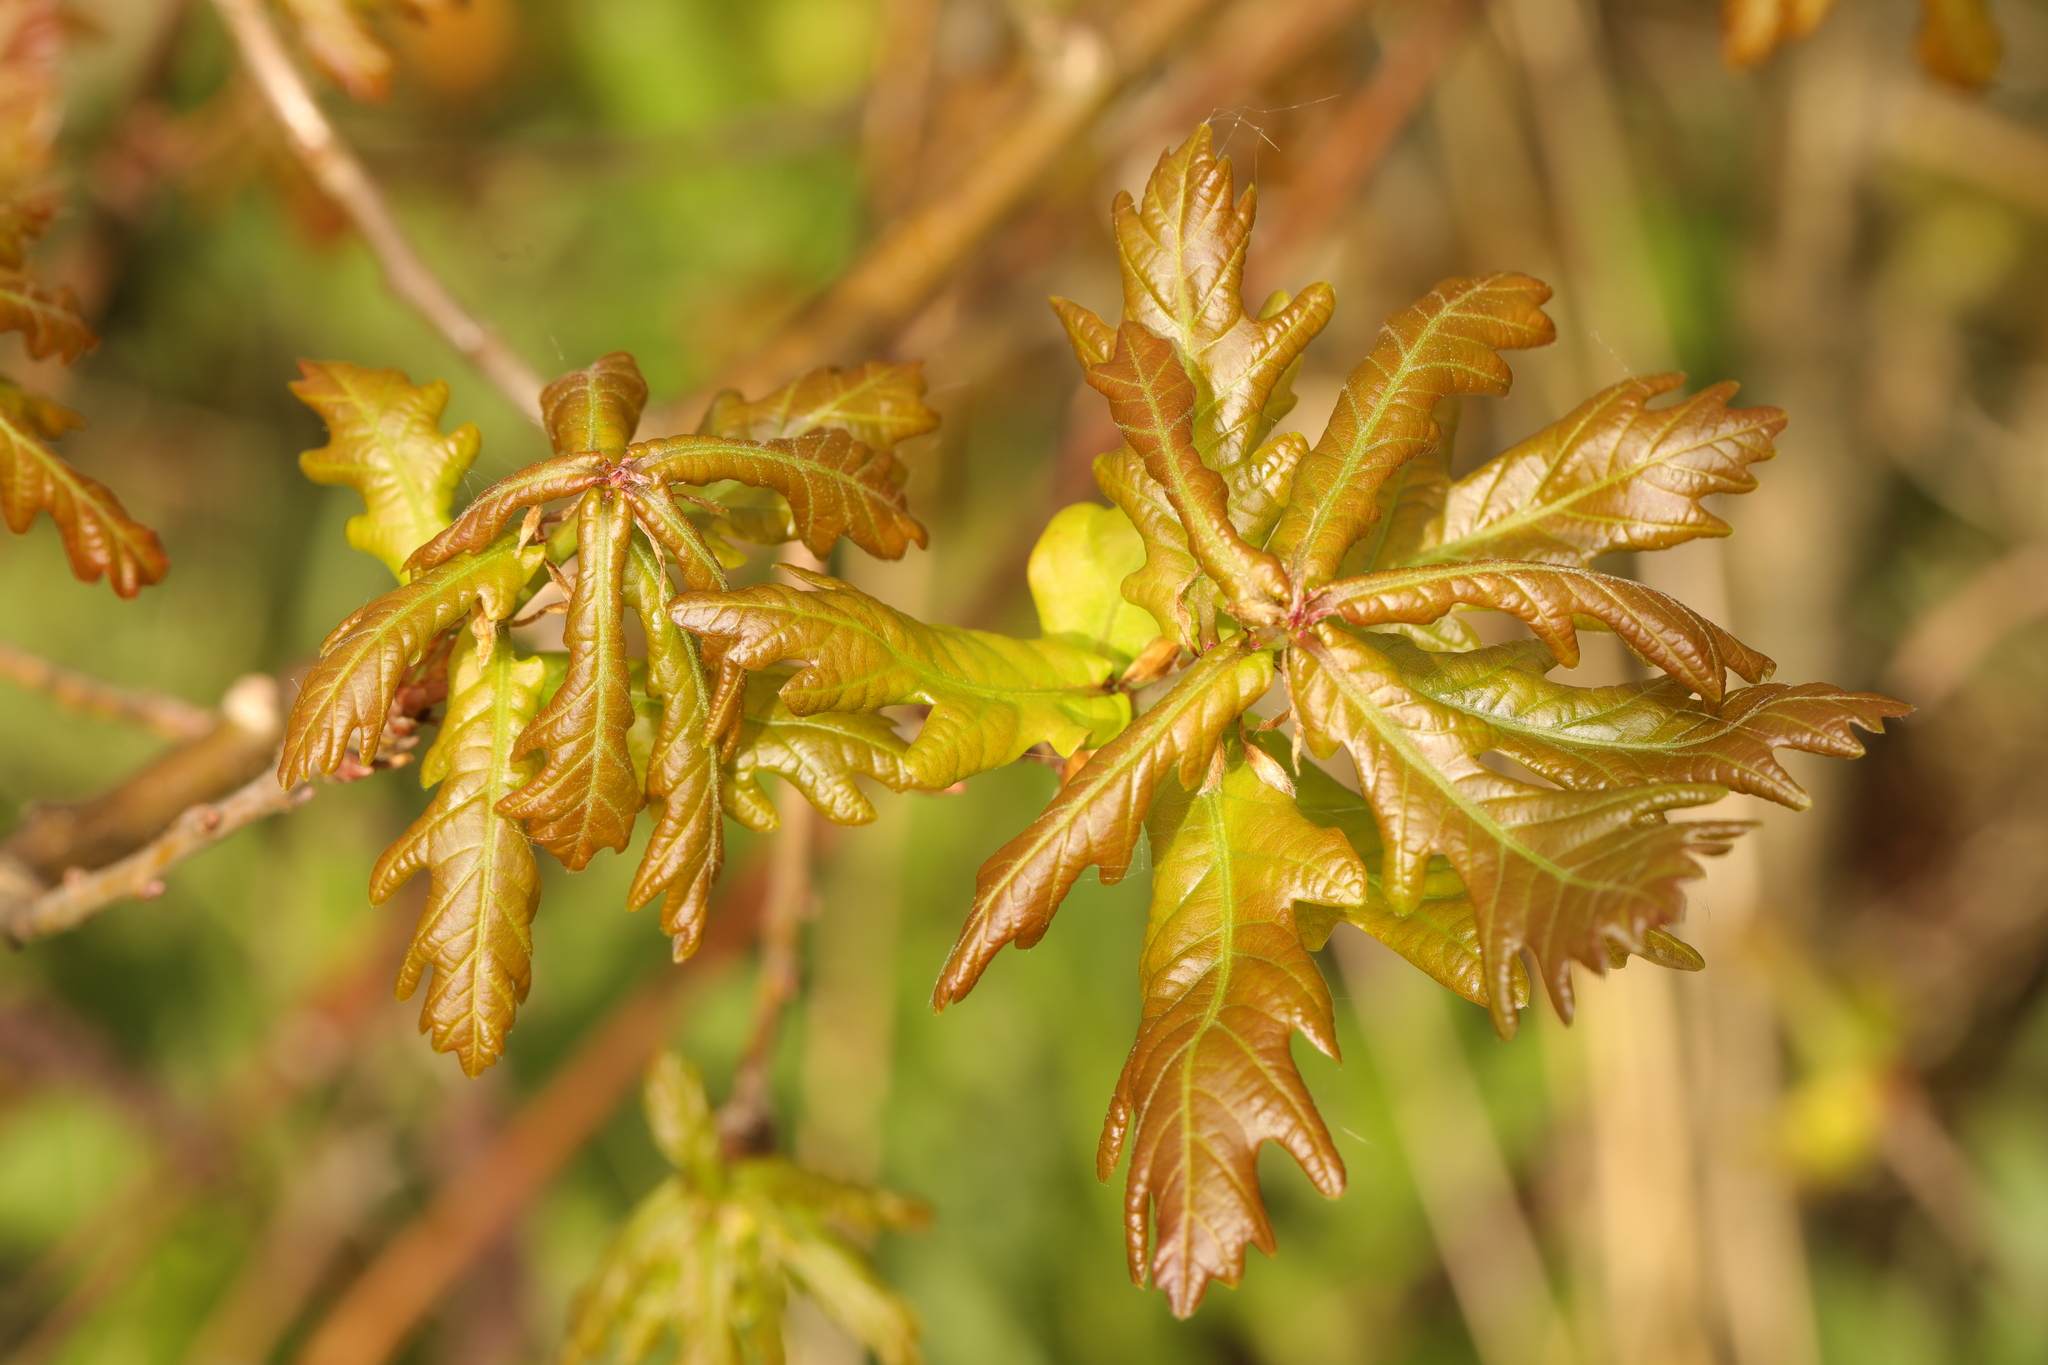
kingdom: Plantae
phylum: Tracheophyta
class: Magnoliopsida
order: Fagales
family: Fagaceae
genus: Quercus
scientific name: Quercus robur
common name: Pedunculate oak
